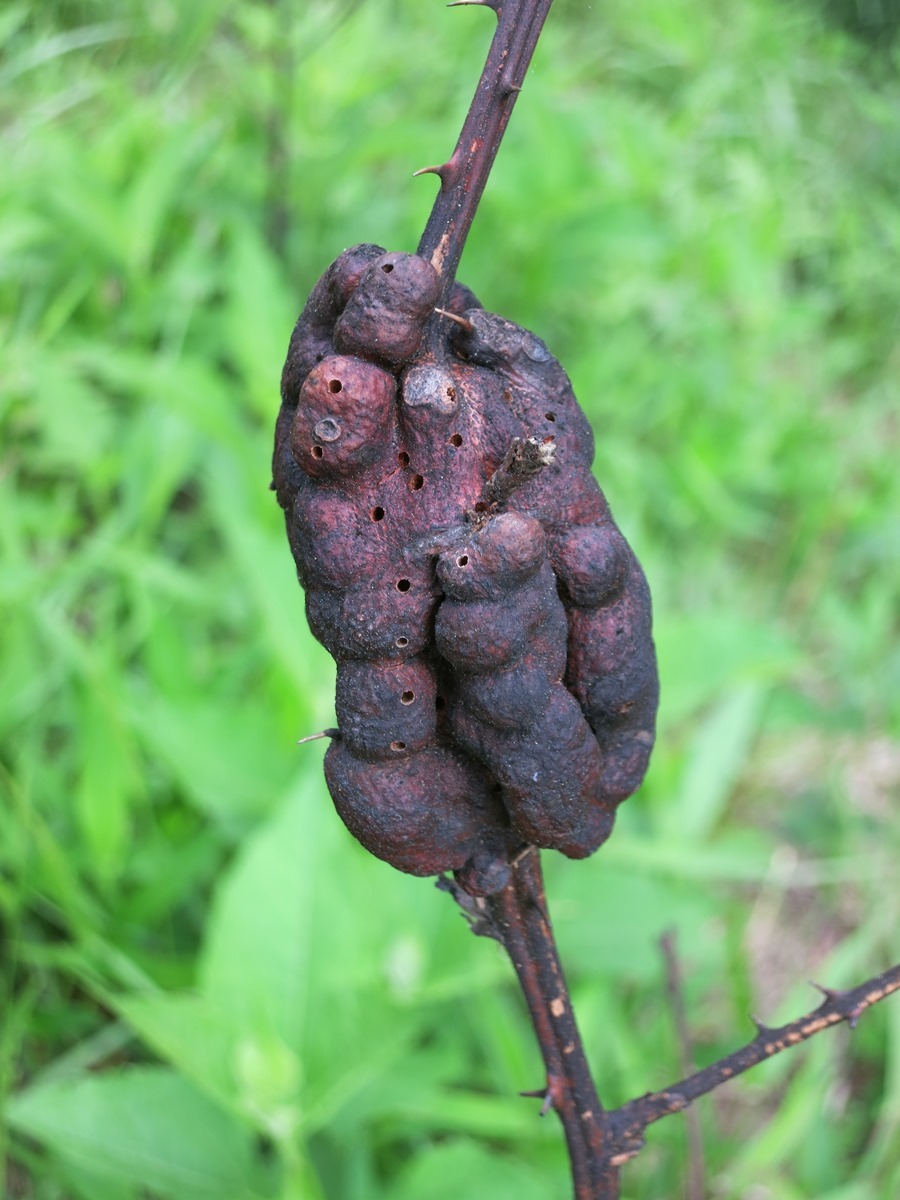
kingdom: Animalia
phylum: Arthropoda
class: Insecta
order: Hymenoptera
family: Cynipidae
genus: Diastrophus
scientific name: Diastrophus
